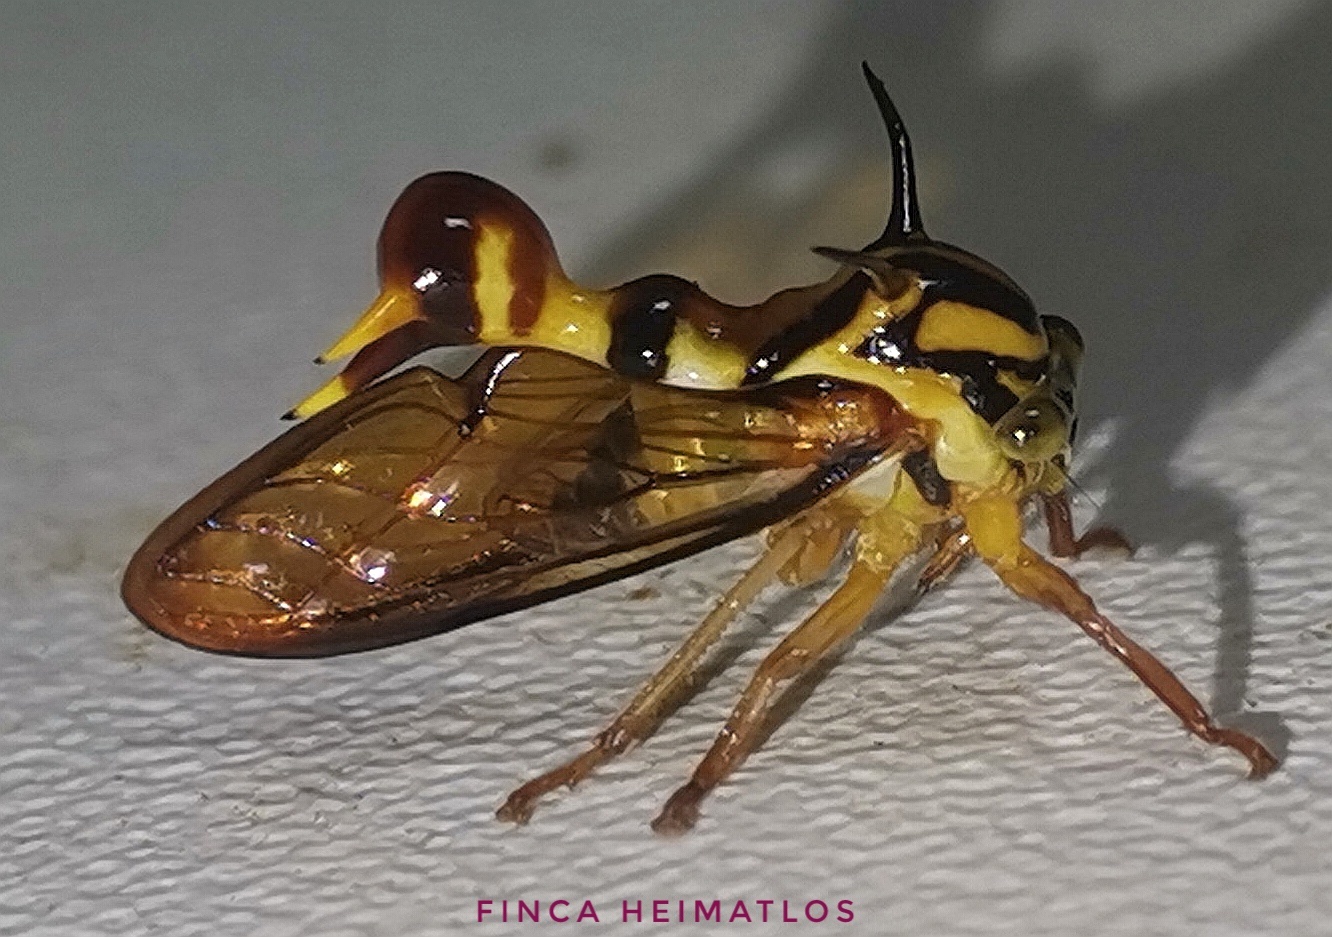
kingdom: Animalia
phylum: Arthropoda
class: Insecta
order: Hemiptera
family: Membracidae
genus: Heteronotus
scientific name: Heteronotus vespiformes
